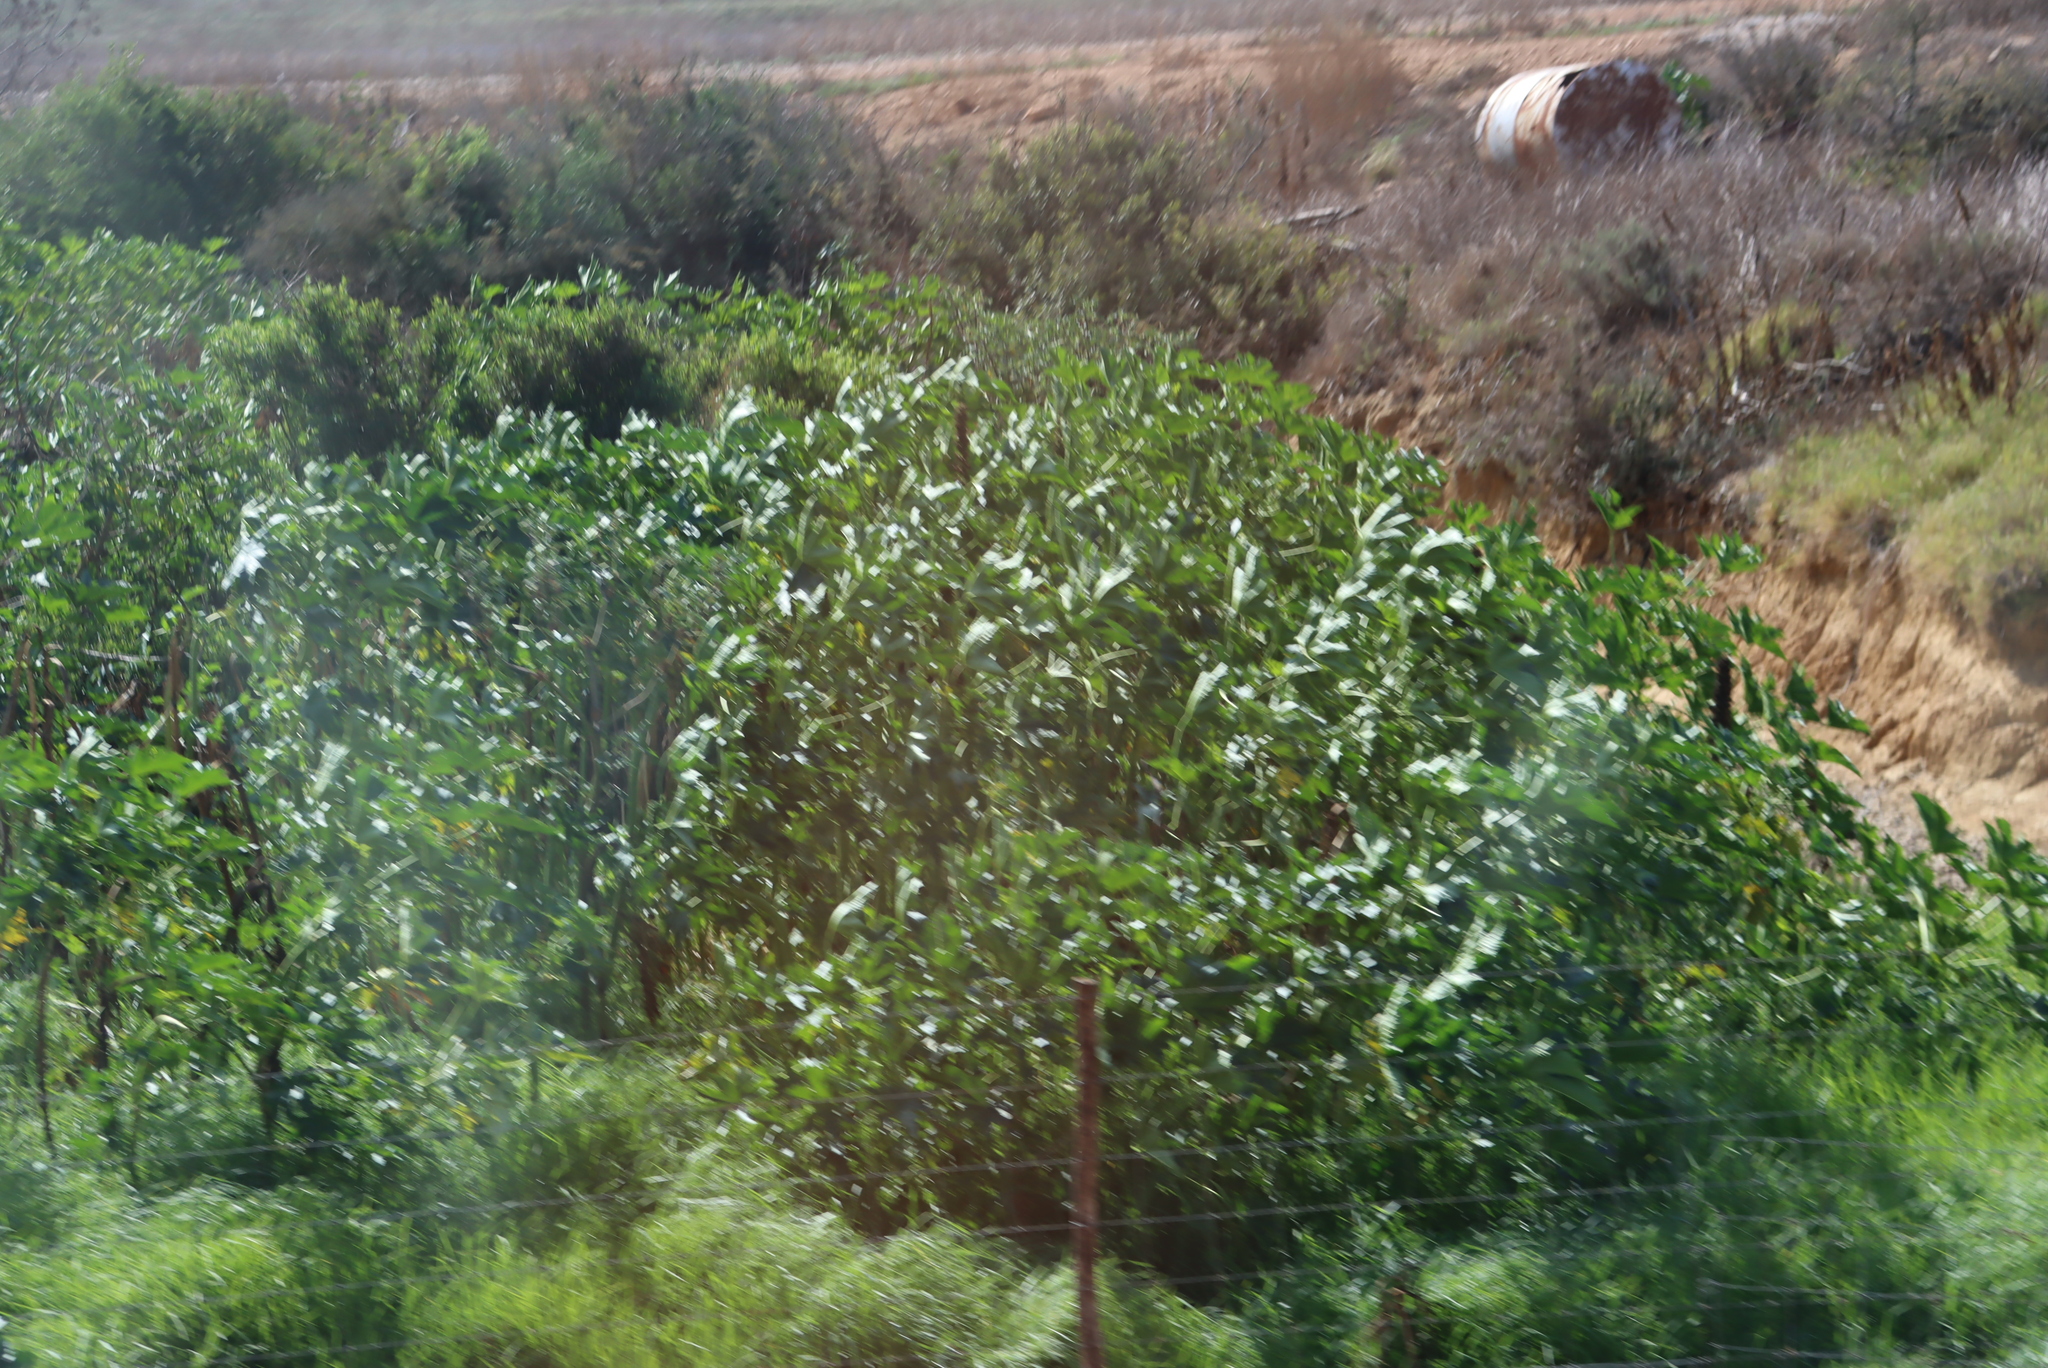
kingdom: Plantae
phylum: Tracheophyta
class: Magnoliopsida
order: Malpighiales
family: Euphorbiaceae
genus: Ricinus
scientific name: Ricinus communis
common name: Castor-oil-plant
